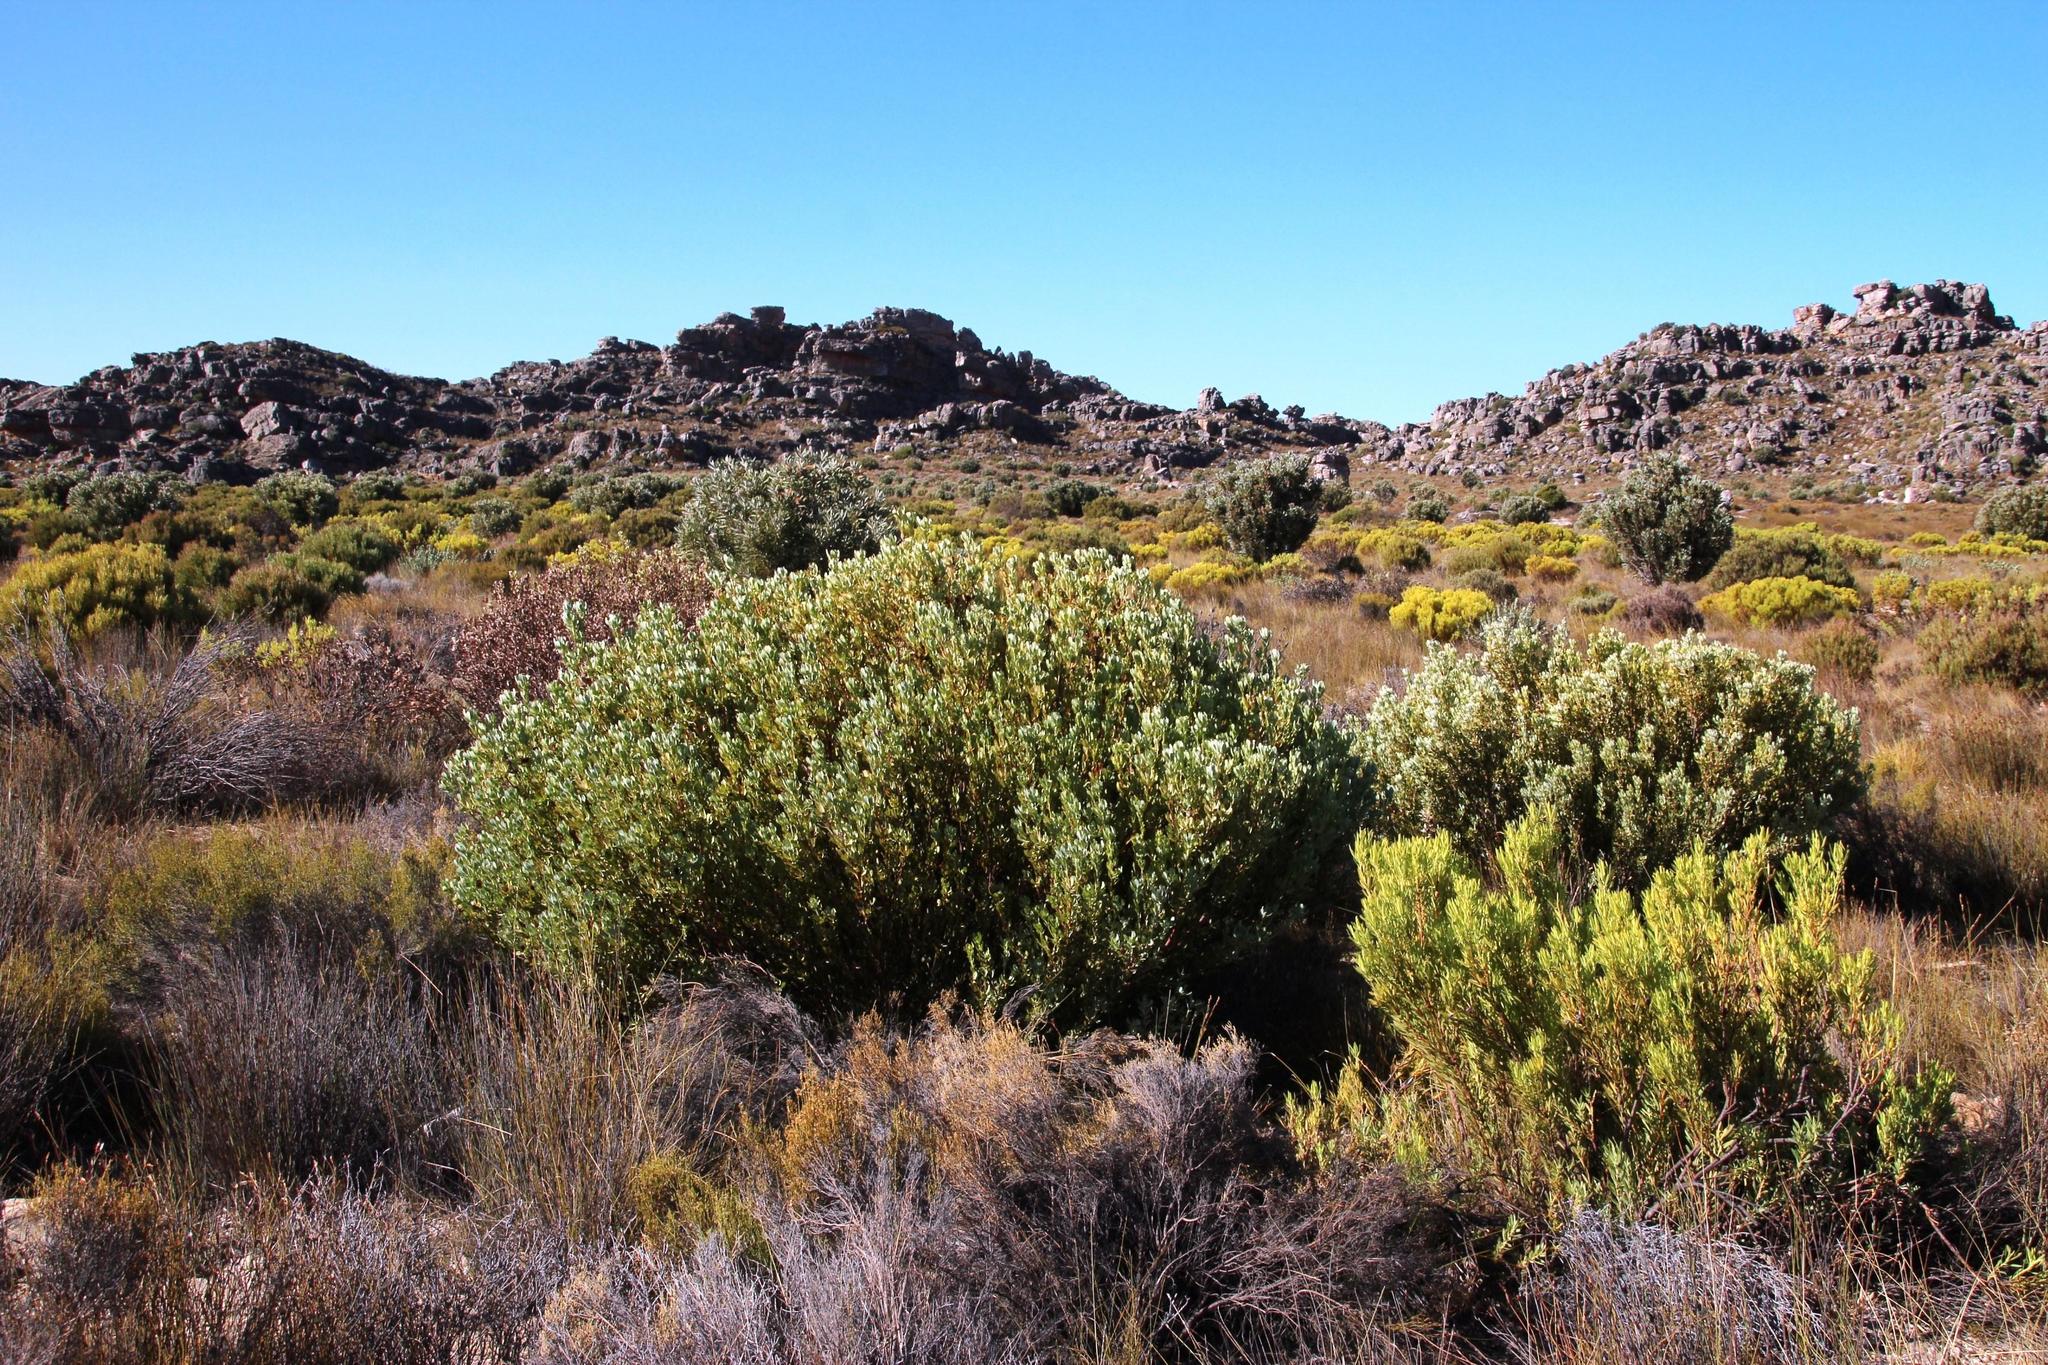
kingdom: Plantae
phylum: Tracheophyta
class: Magnoliopsida
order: Proteales
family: Proteaceae
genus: Leucadendron
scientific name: Leucadendron loranthifolium
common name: Green-flower sunbush
